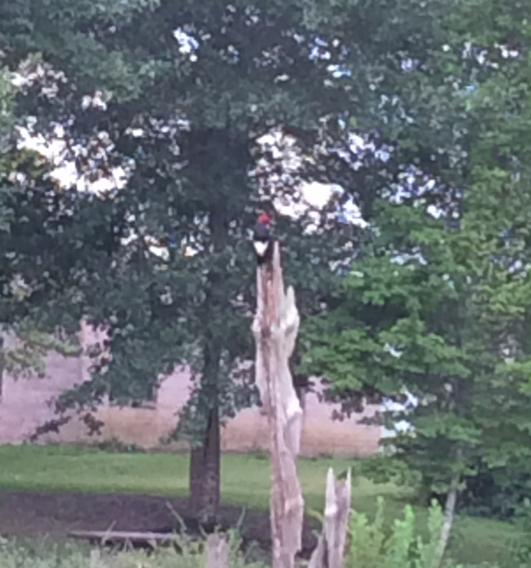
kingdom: Animalia
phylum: Chordata
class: Aves
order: Piciformes
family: Picidae
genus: Melanerpes
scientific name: Melanerpes erythrocephalus
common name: Red-headed woodpecker
